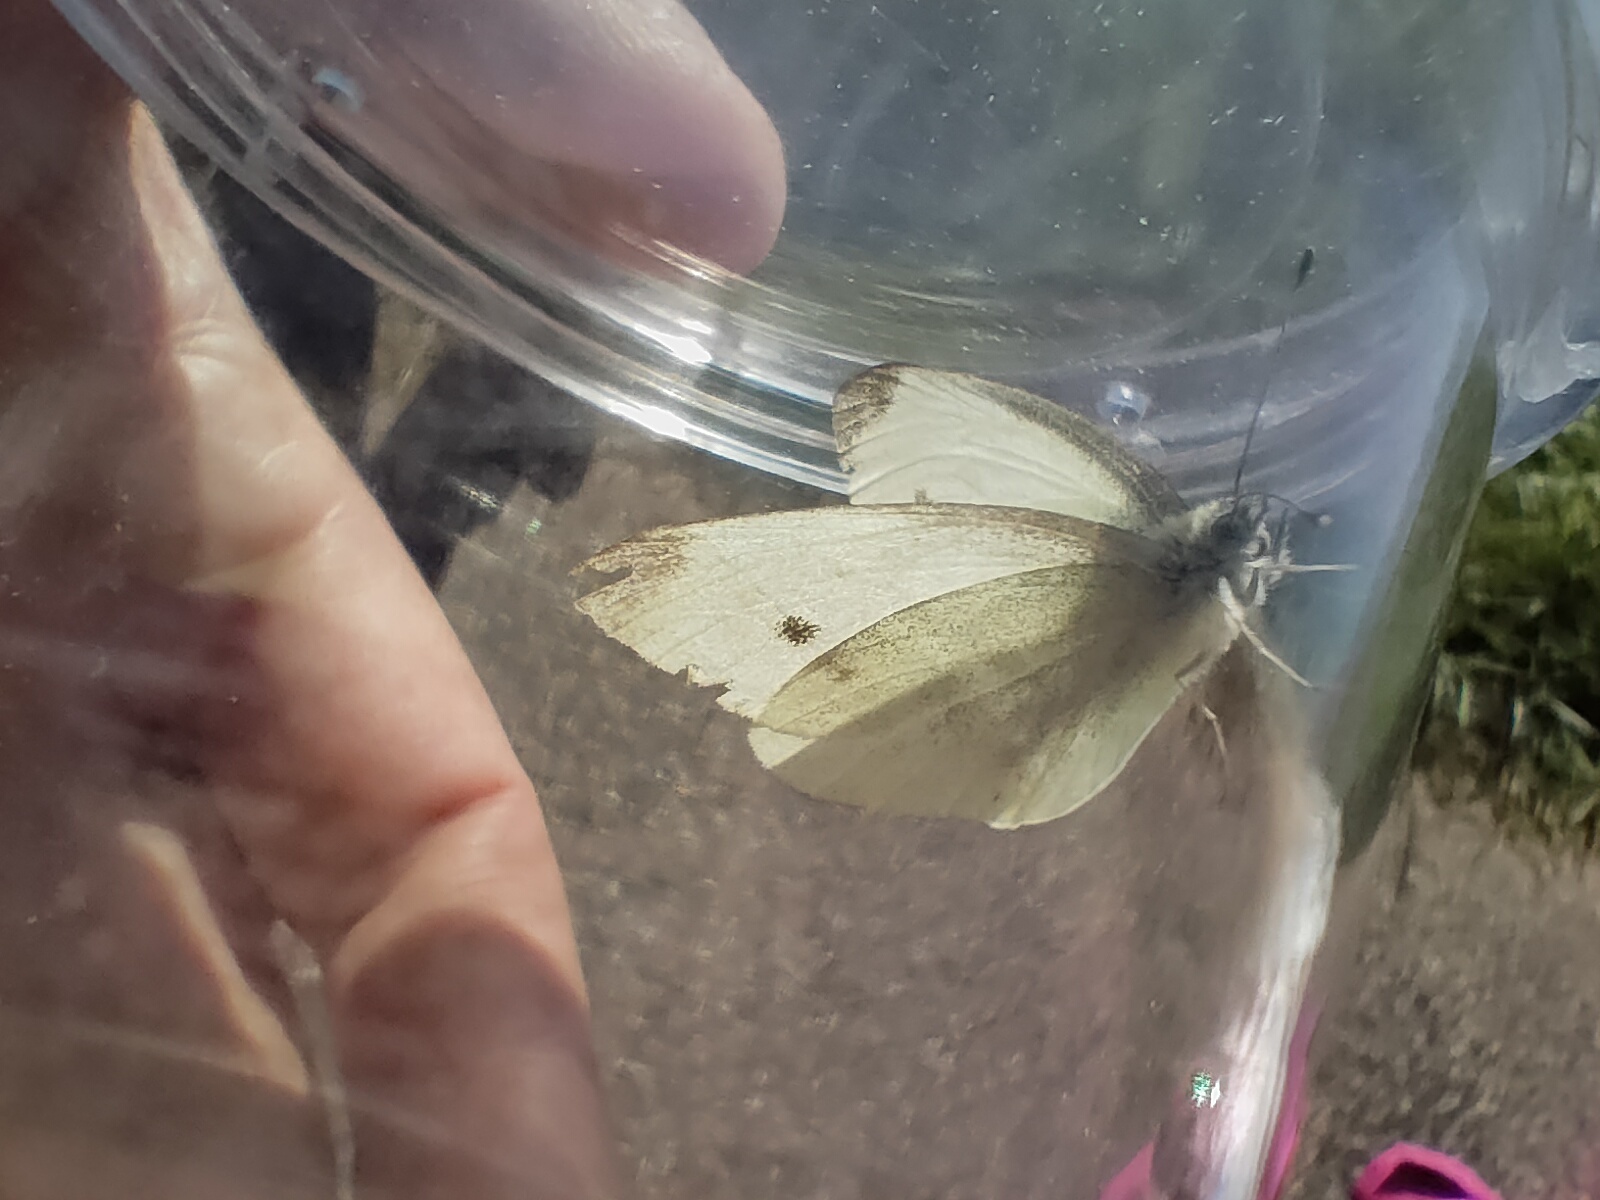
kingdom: Animalia
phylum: Arthropoda
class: Insecta
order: Lepidoptera
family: Pieridae
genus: Pieris
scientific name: Pieris rapae
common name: Small white
